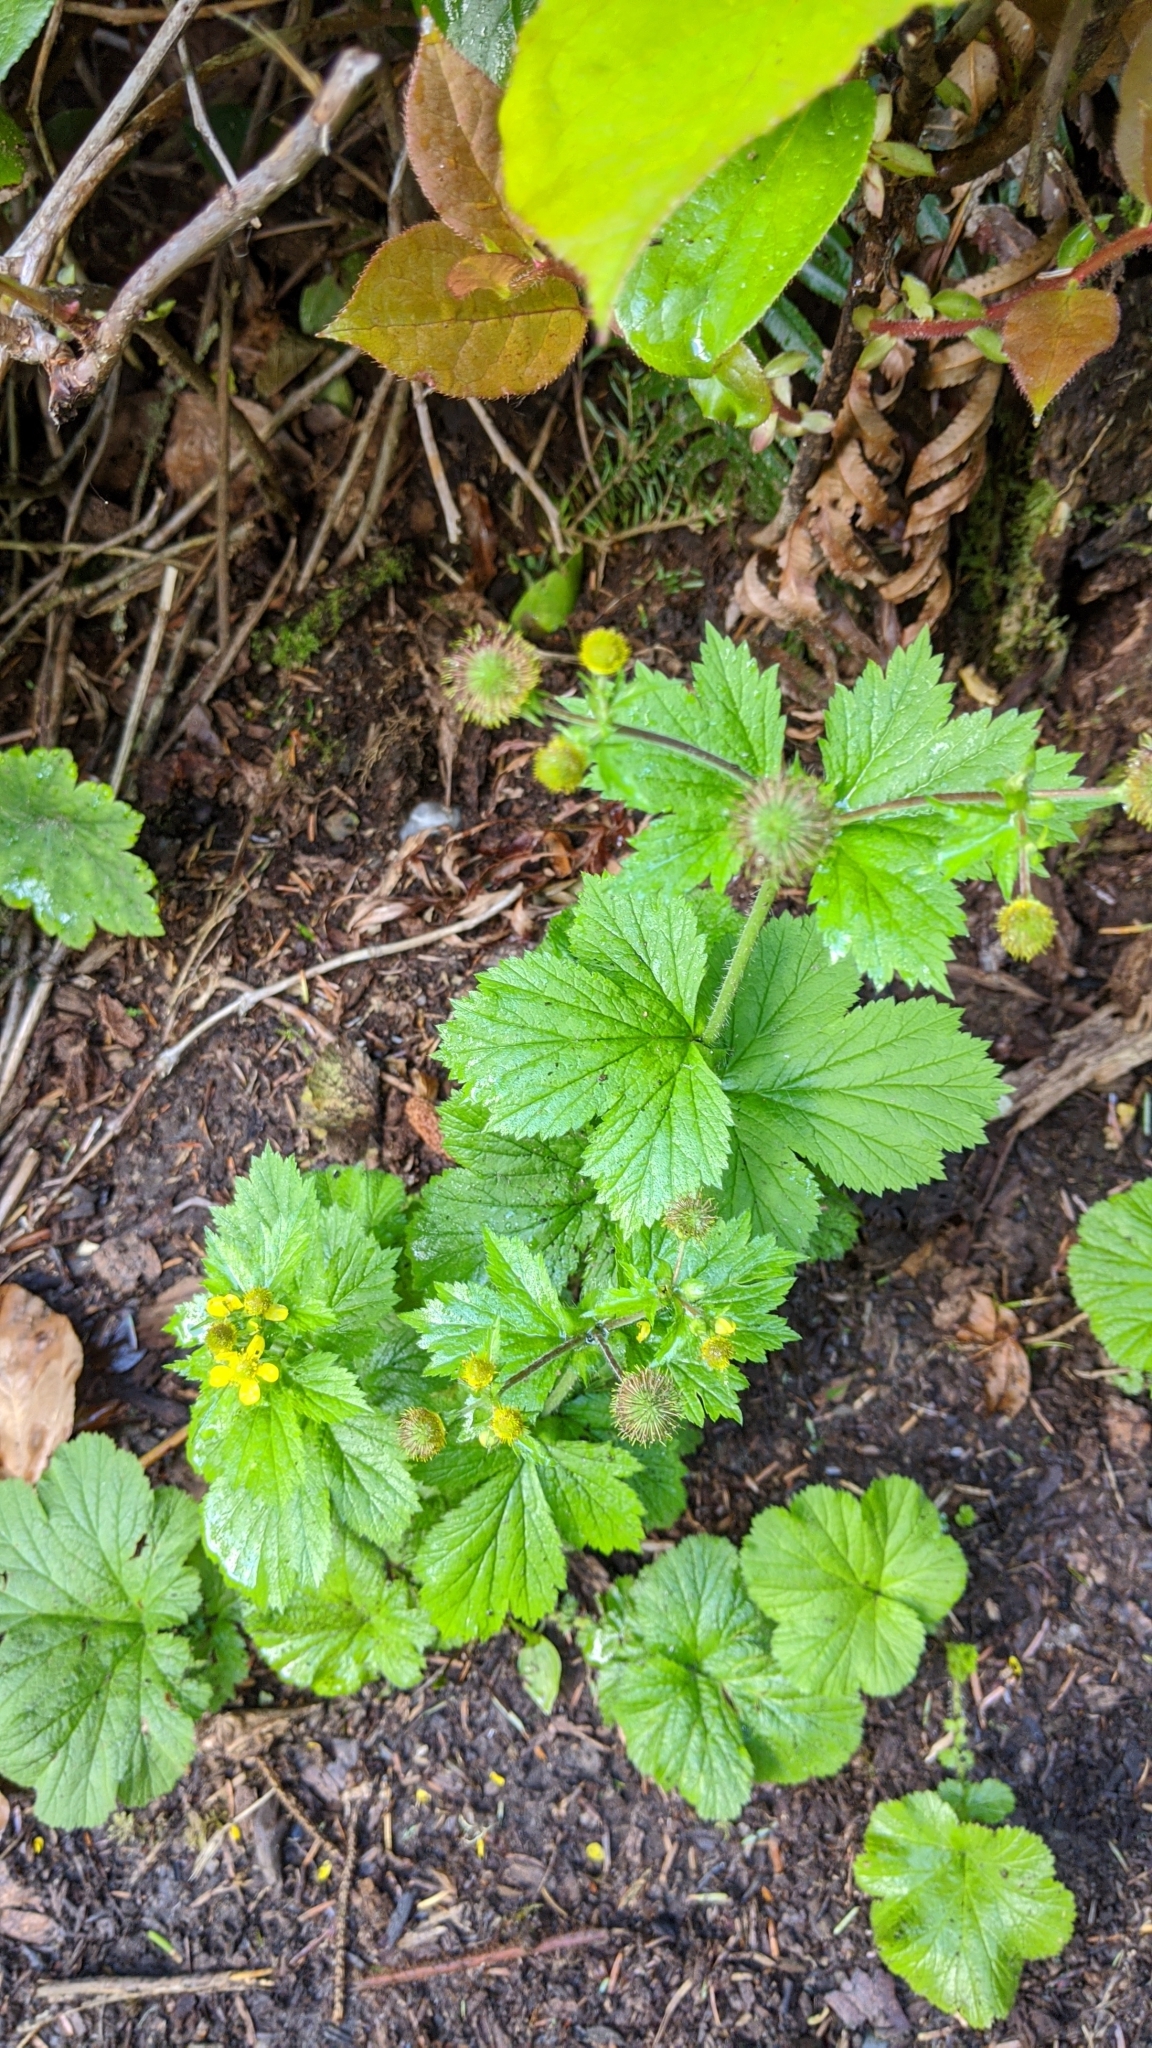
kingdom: Plantae
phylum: Tracheophyta
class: Magnoliopsida
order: Rosales
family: Rosaceae
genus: Geum
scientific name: Geum macrophyllum
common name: Large-leaved avens
